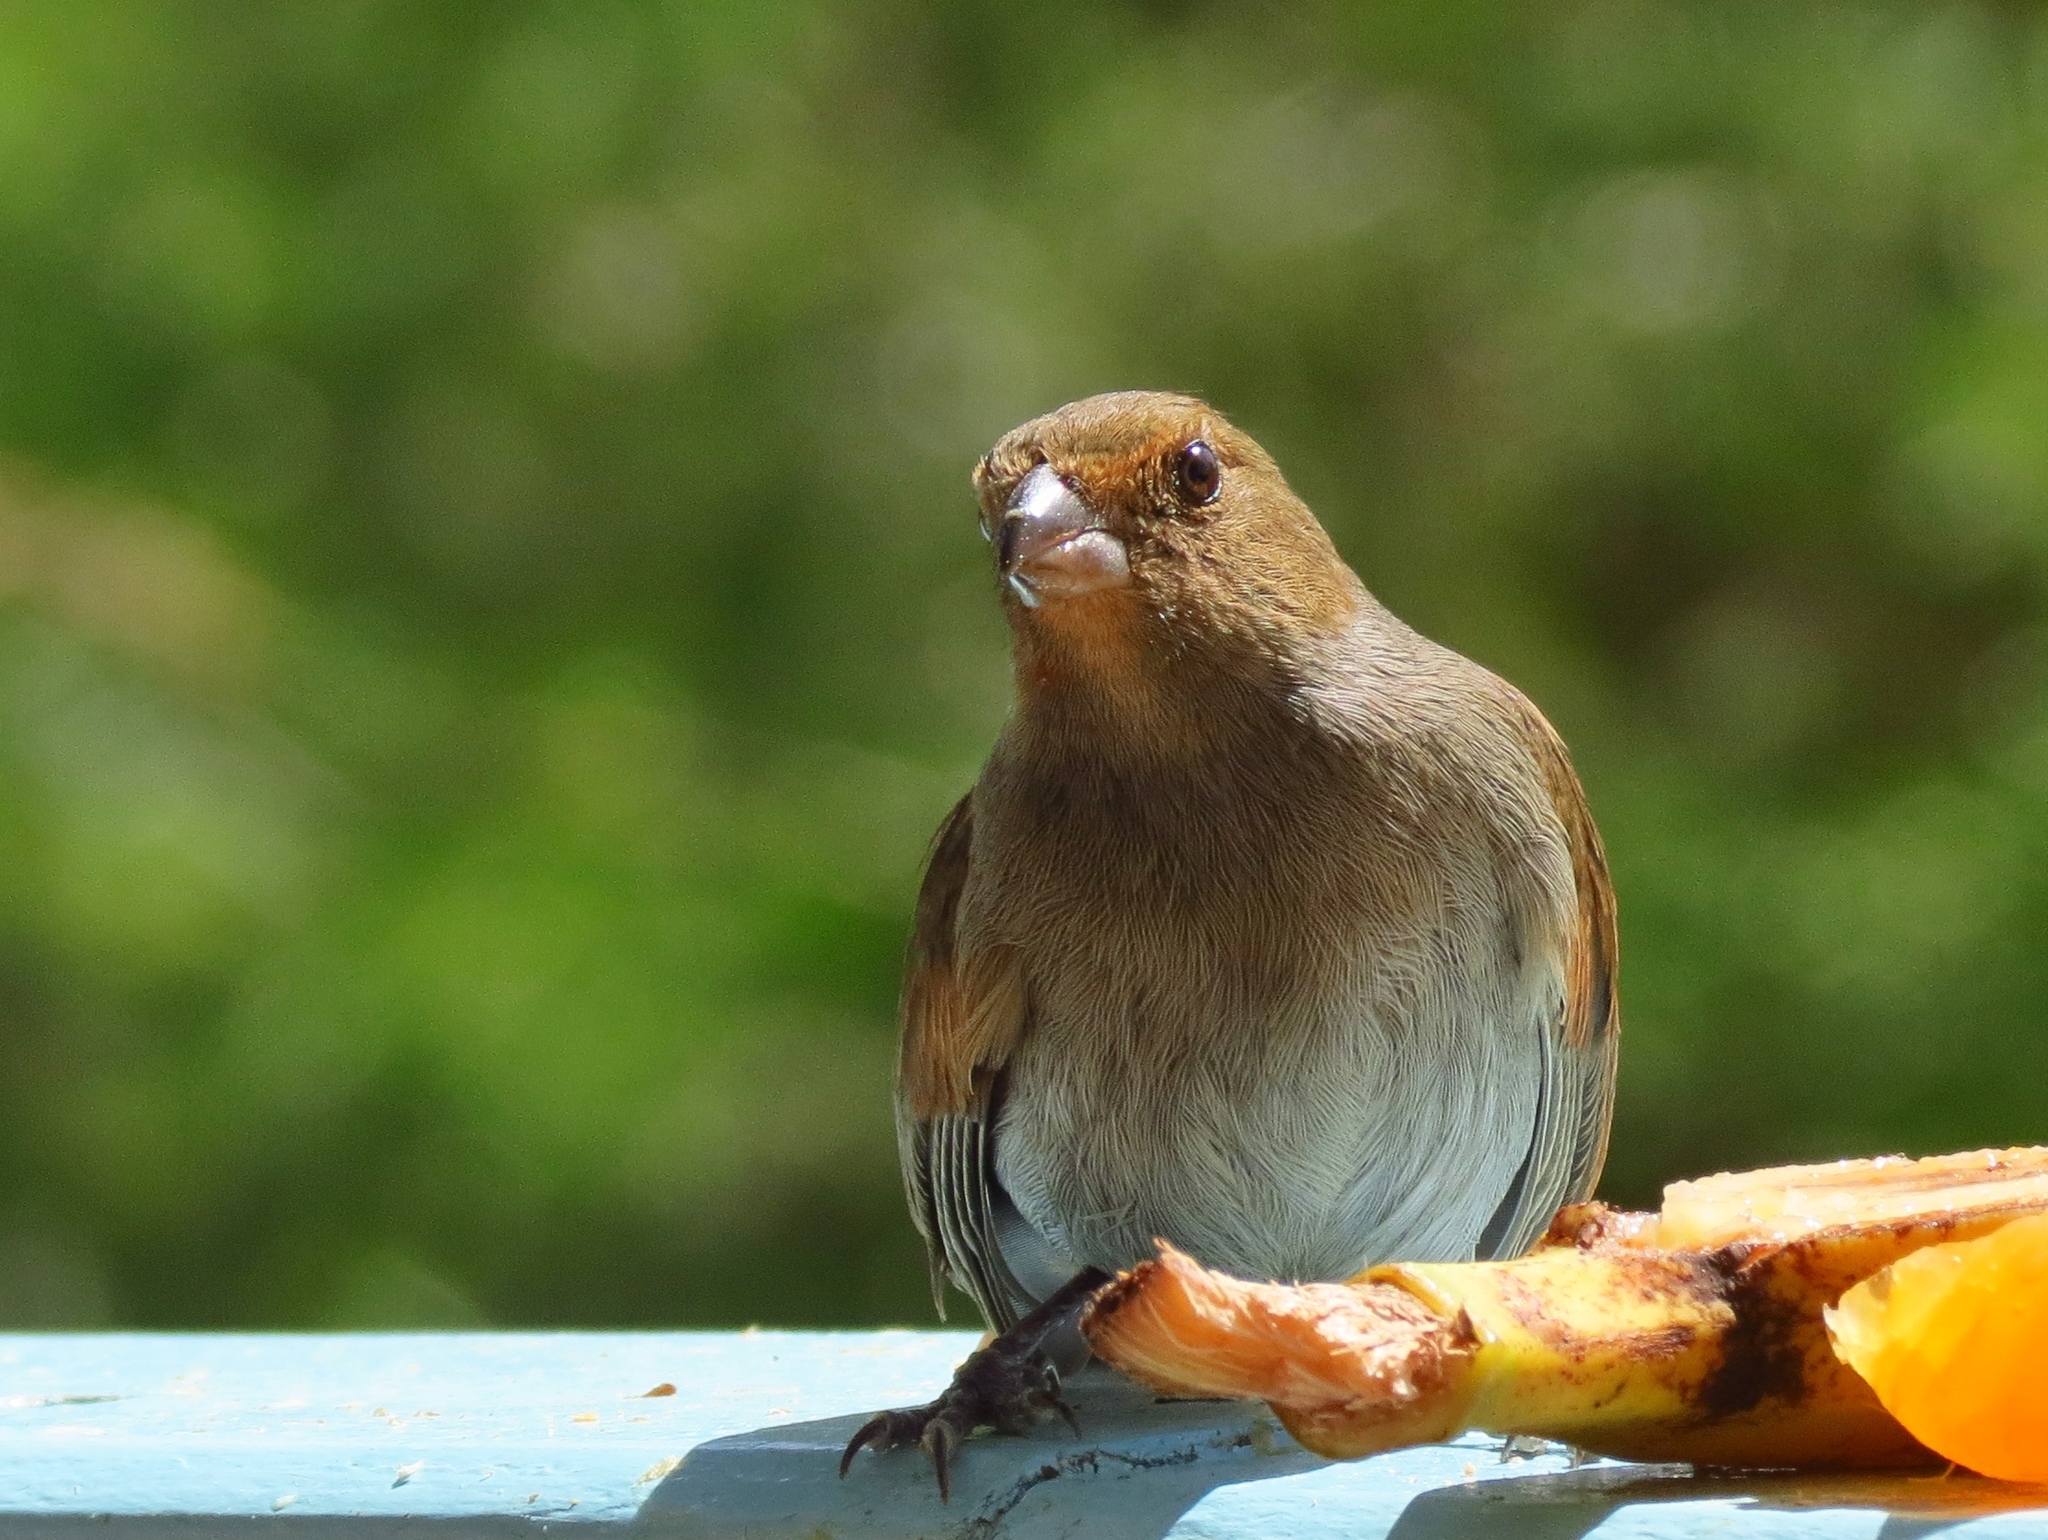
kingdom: Animalia
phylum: Chordata
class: Aves
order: Passeriformes
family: Thraupidae
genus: Loxigilla
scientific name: Loxigilla noctis
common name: Lesser antillean bullfinch
